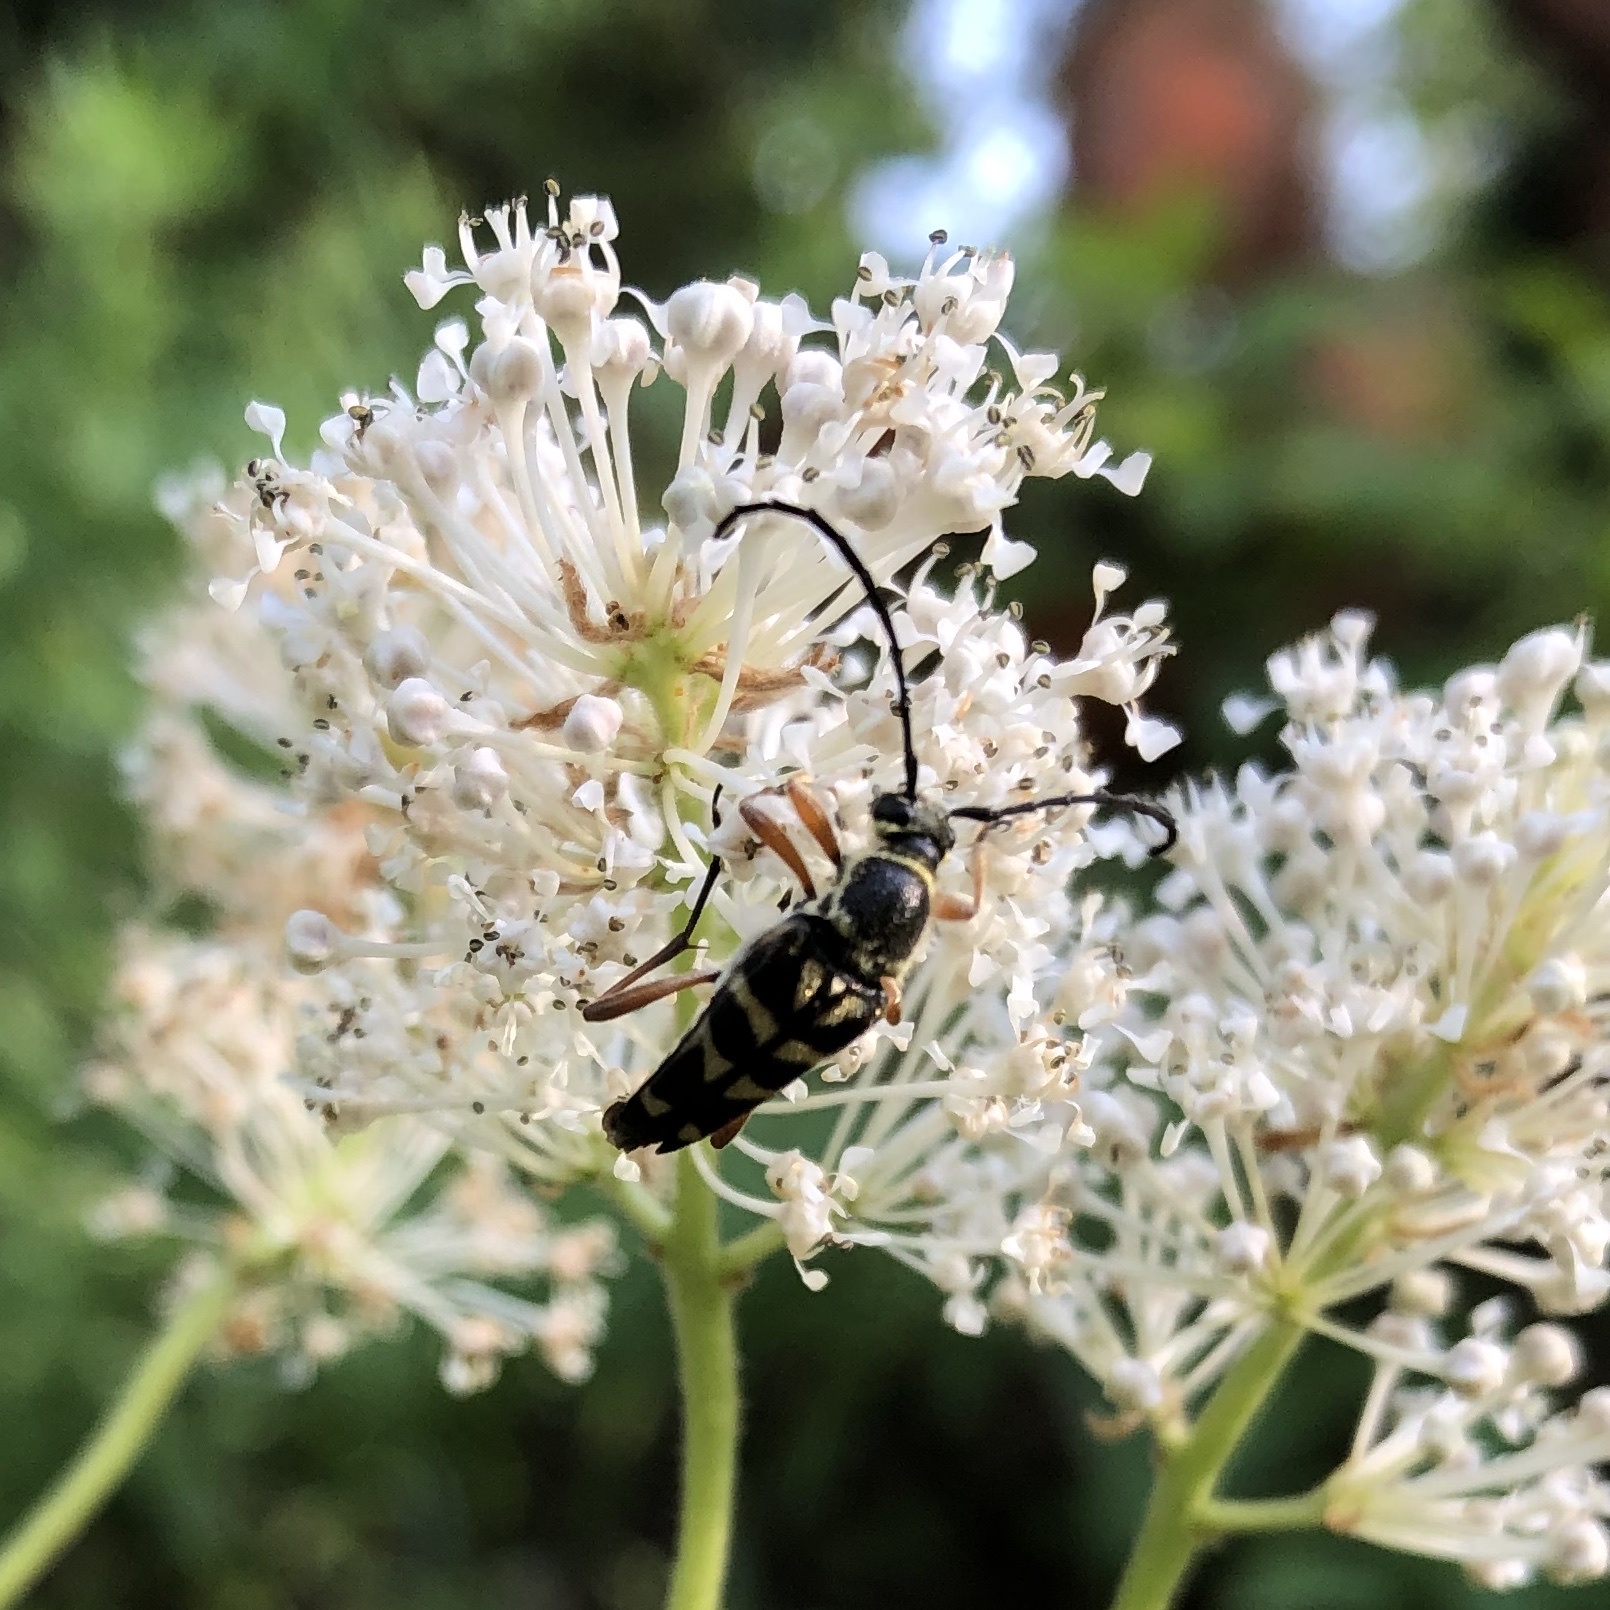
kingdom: Animalia
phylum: Arthropoda
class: Insecta
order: Coleoptera
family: Cerambycidae
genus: Typocerus
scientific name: Typocerus zebra
